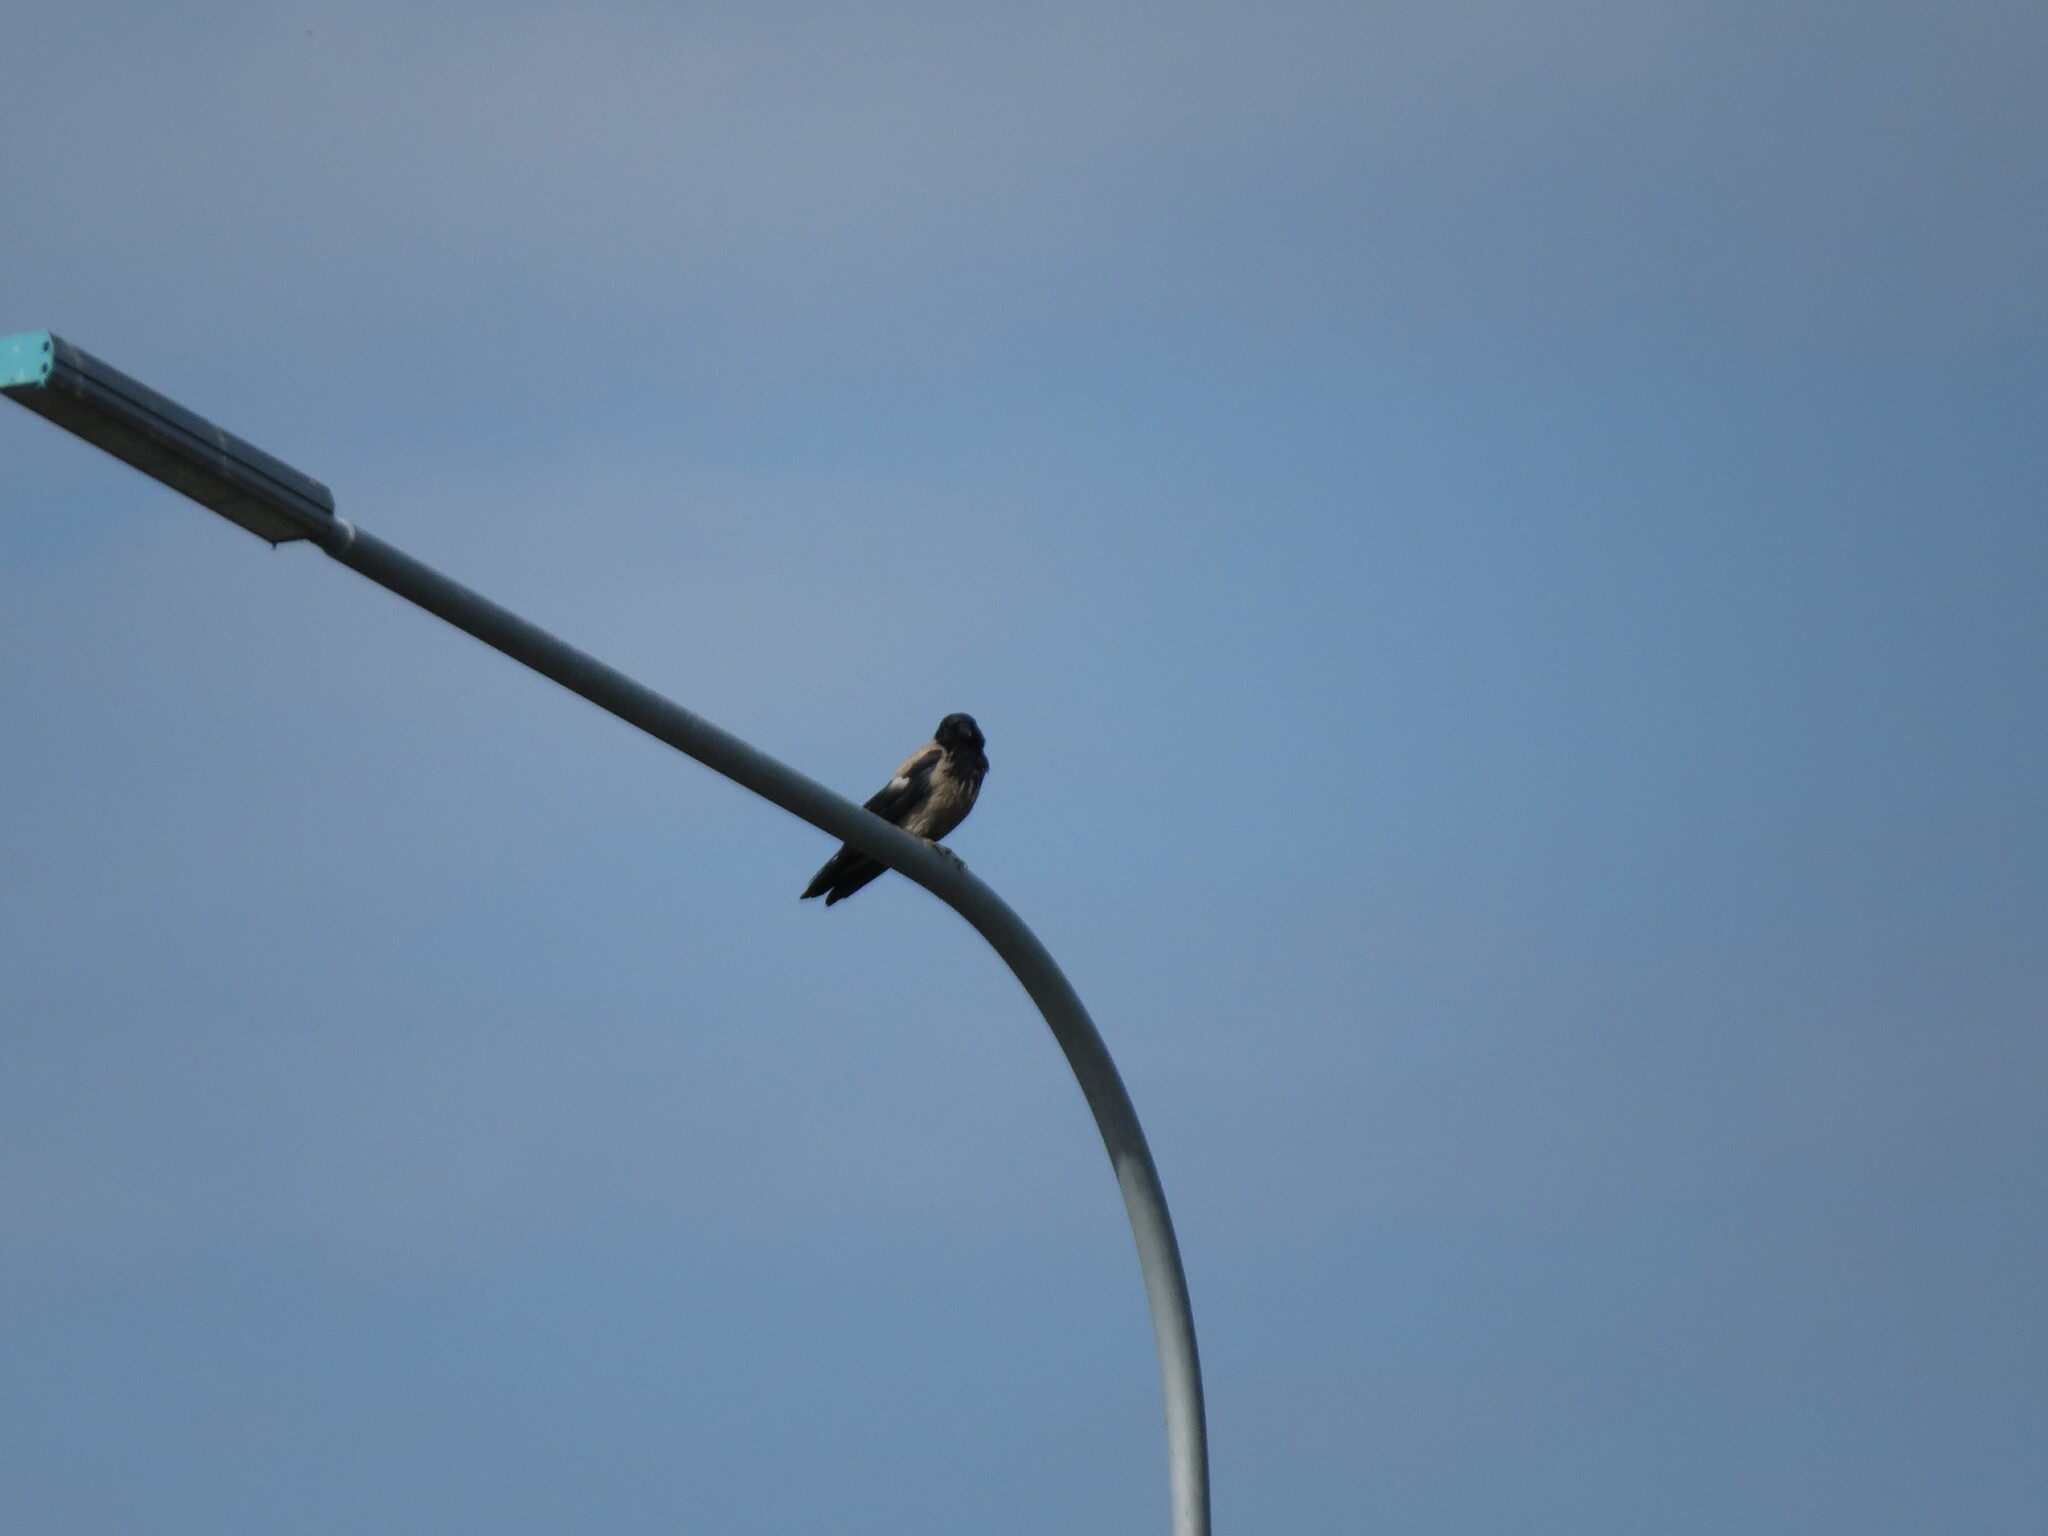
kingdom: Animalia
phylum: Chordata
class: Aves
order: Passeriformes
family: Corvidae
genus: Corvus
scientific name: Corvus cornix
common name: Hooded crow
